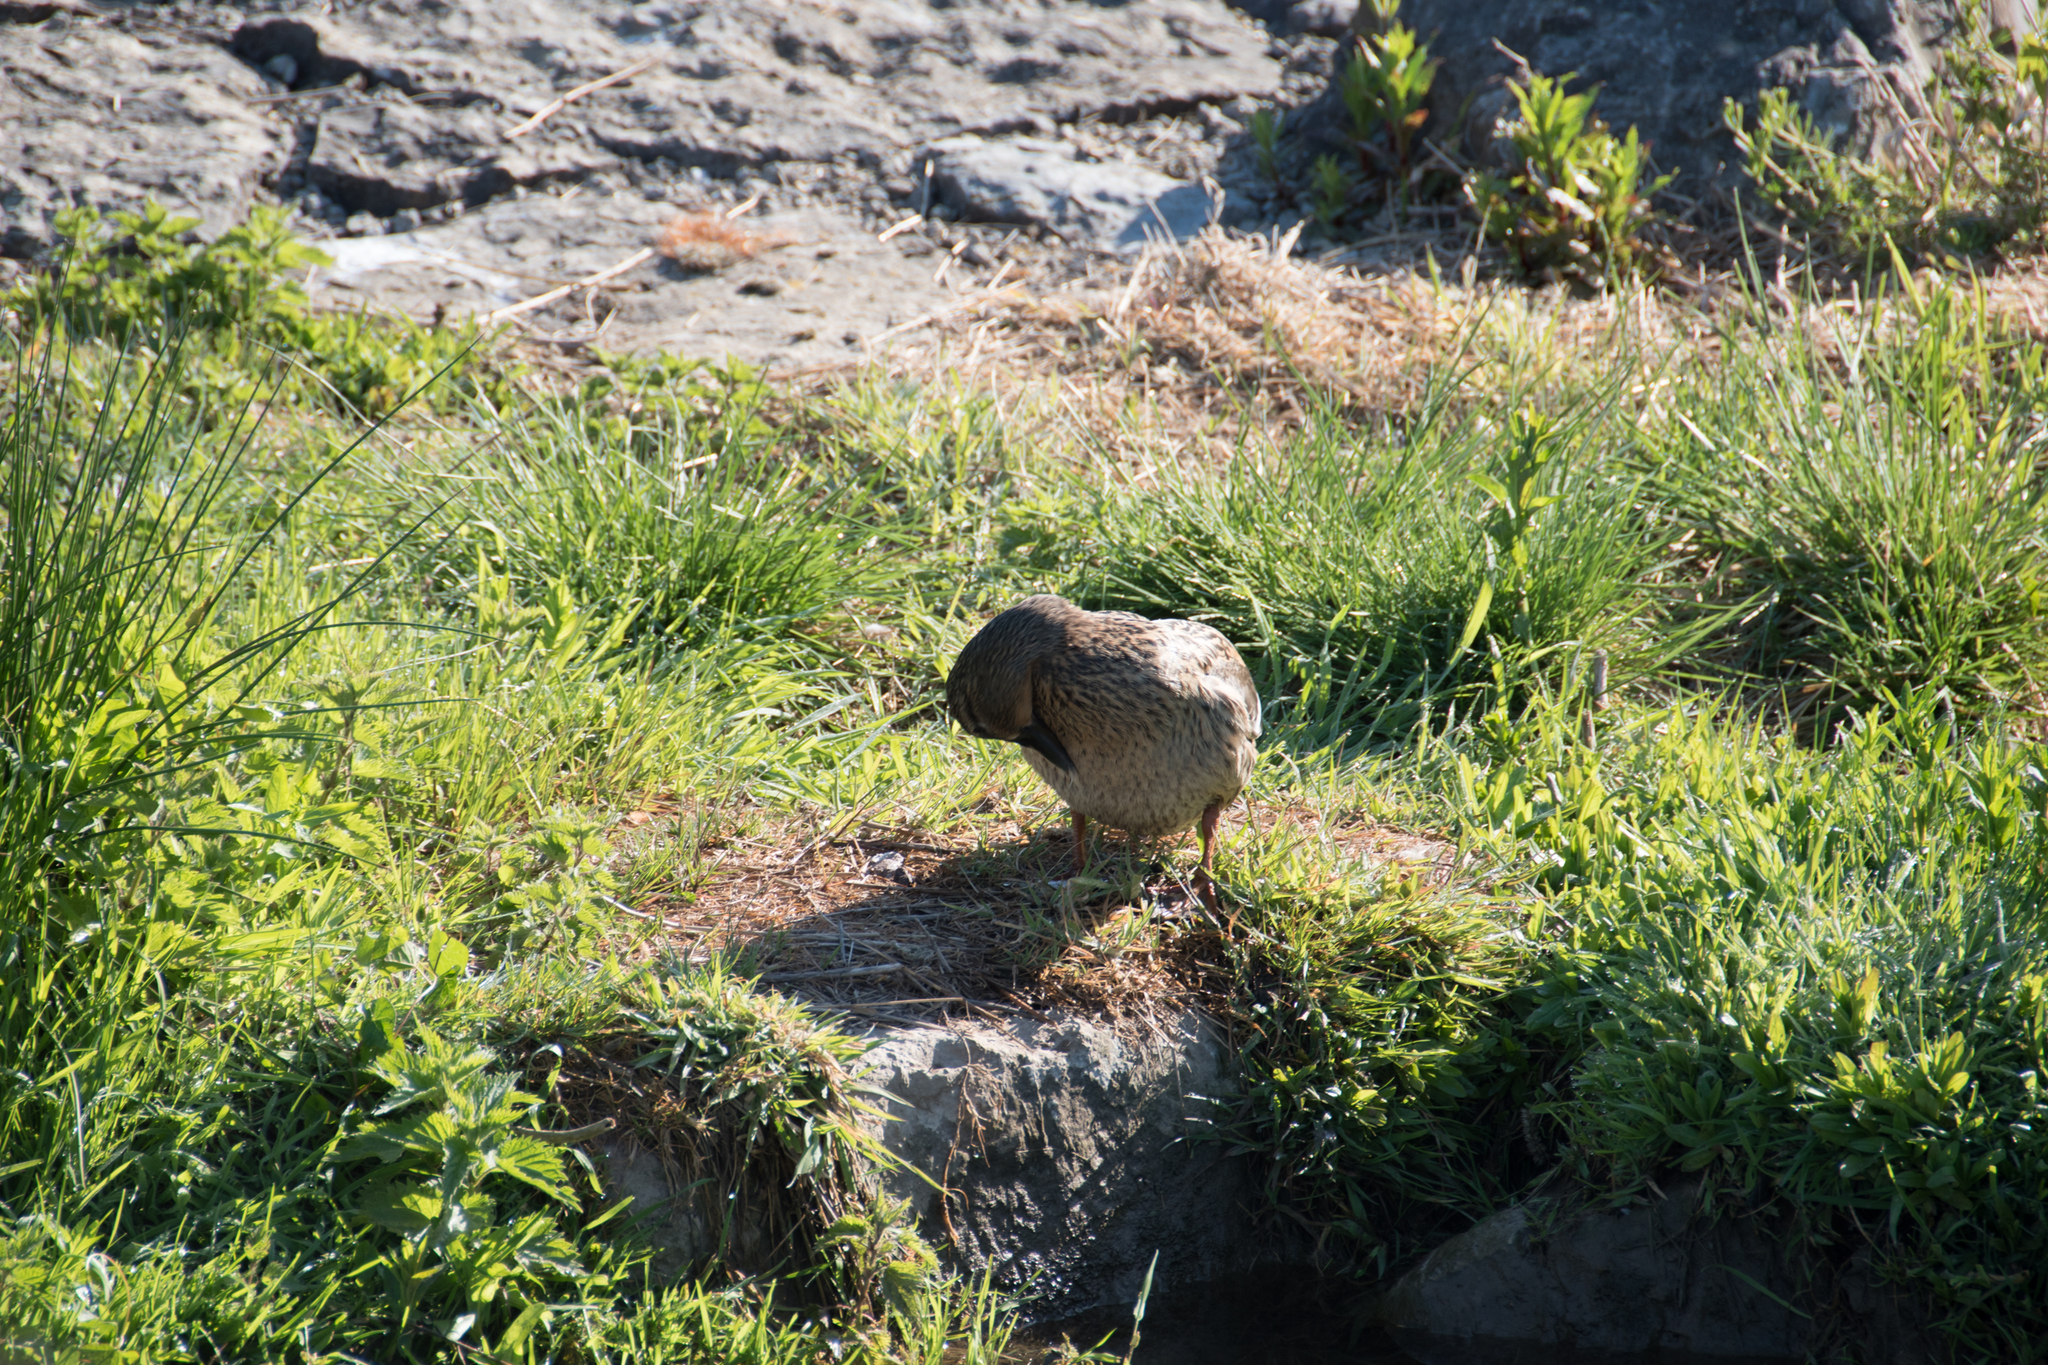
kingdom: Animalia
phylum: Chordata
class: Aves
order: Anseriformes
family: Anatidae
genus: Anas
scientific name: Anas platyrhynchos
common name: Mallard
